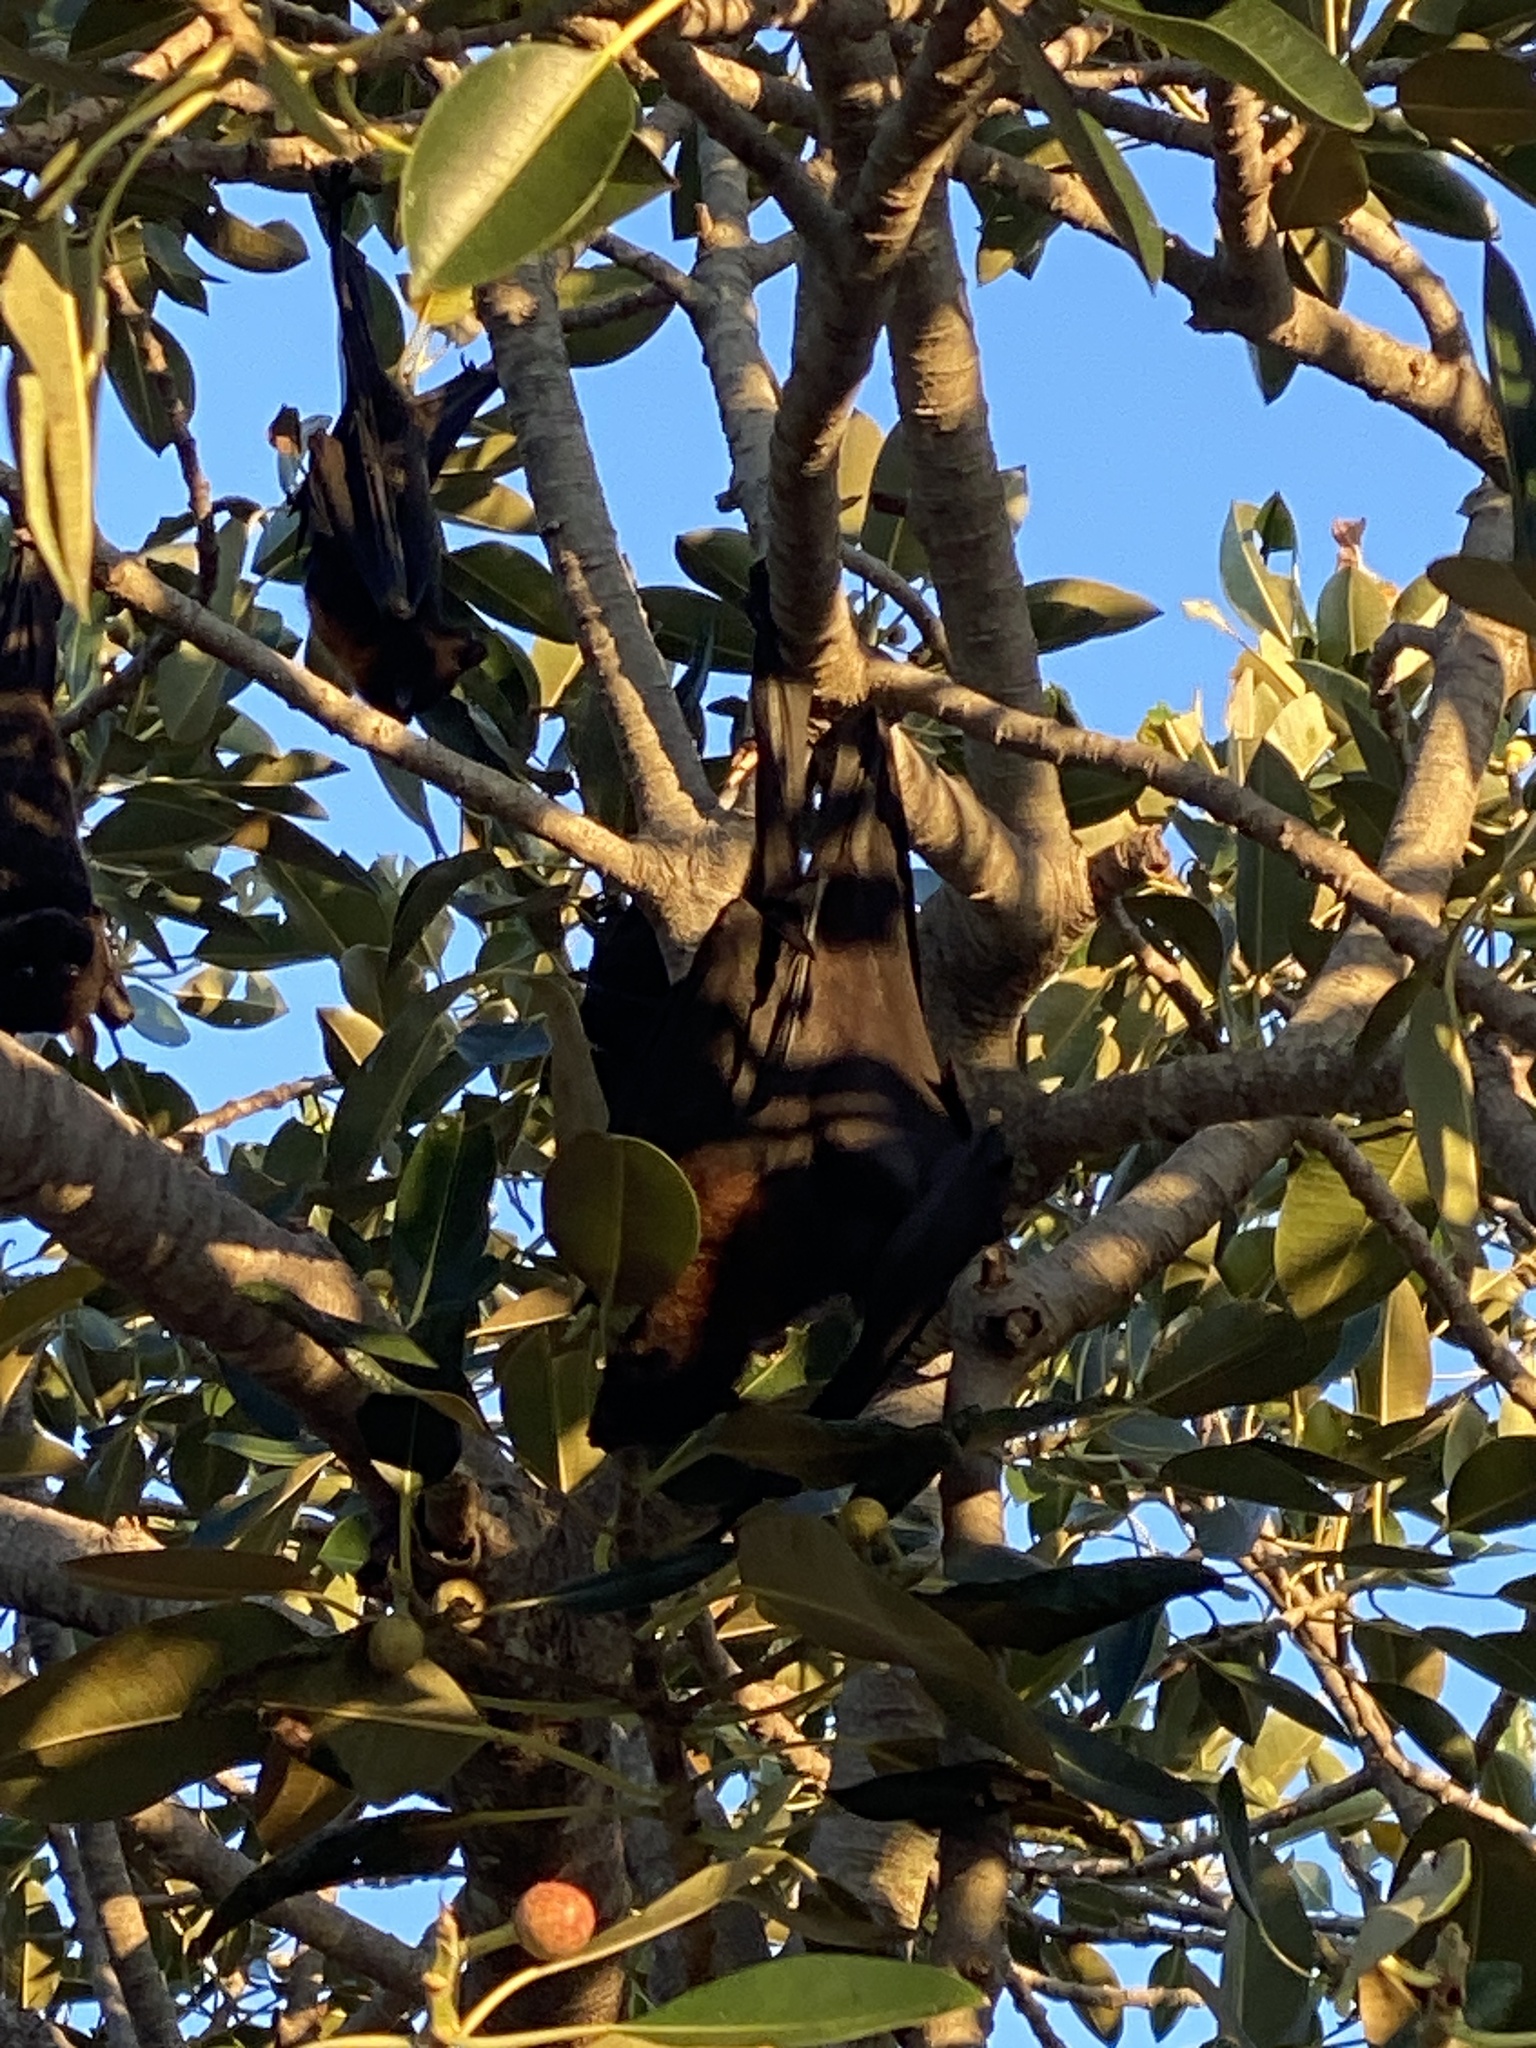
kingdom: Animalia
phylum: Chordata
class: Mammalia
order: Chiroptera
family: Pteropodidae
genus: Pteropus
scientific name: Pteropus alecto
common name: Black flying fox
